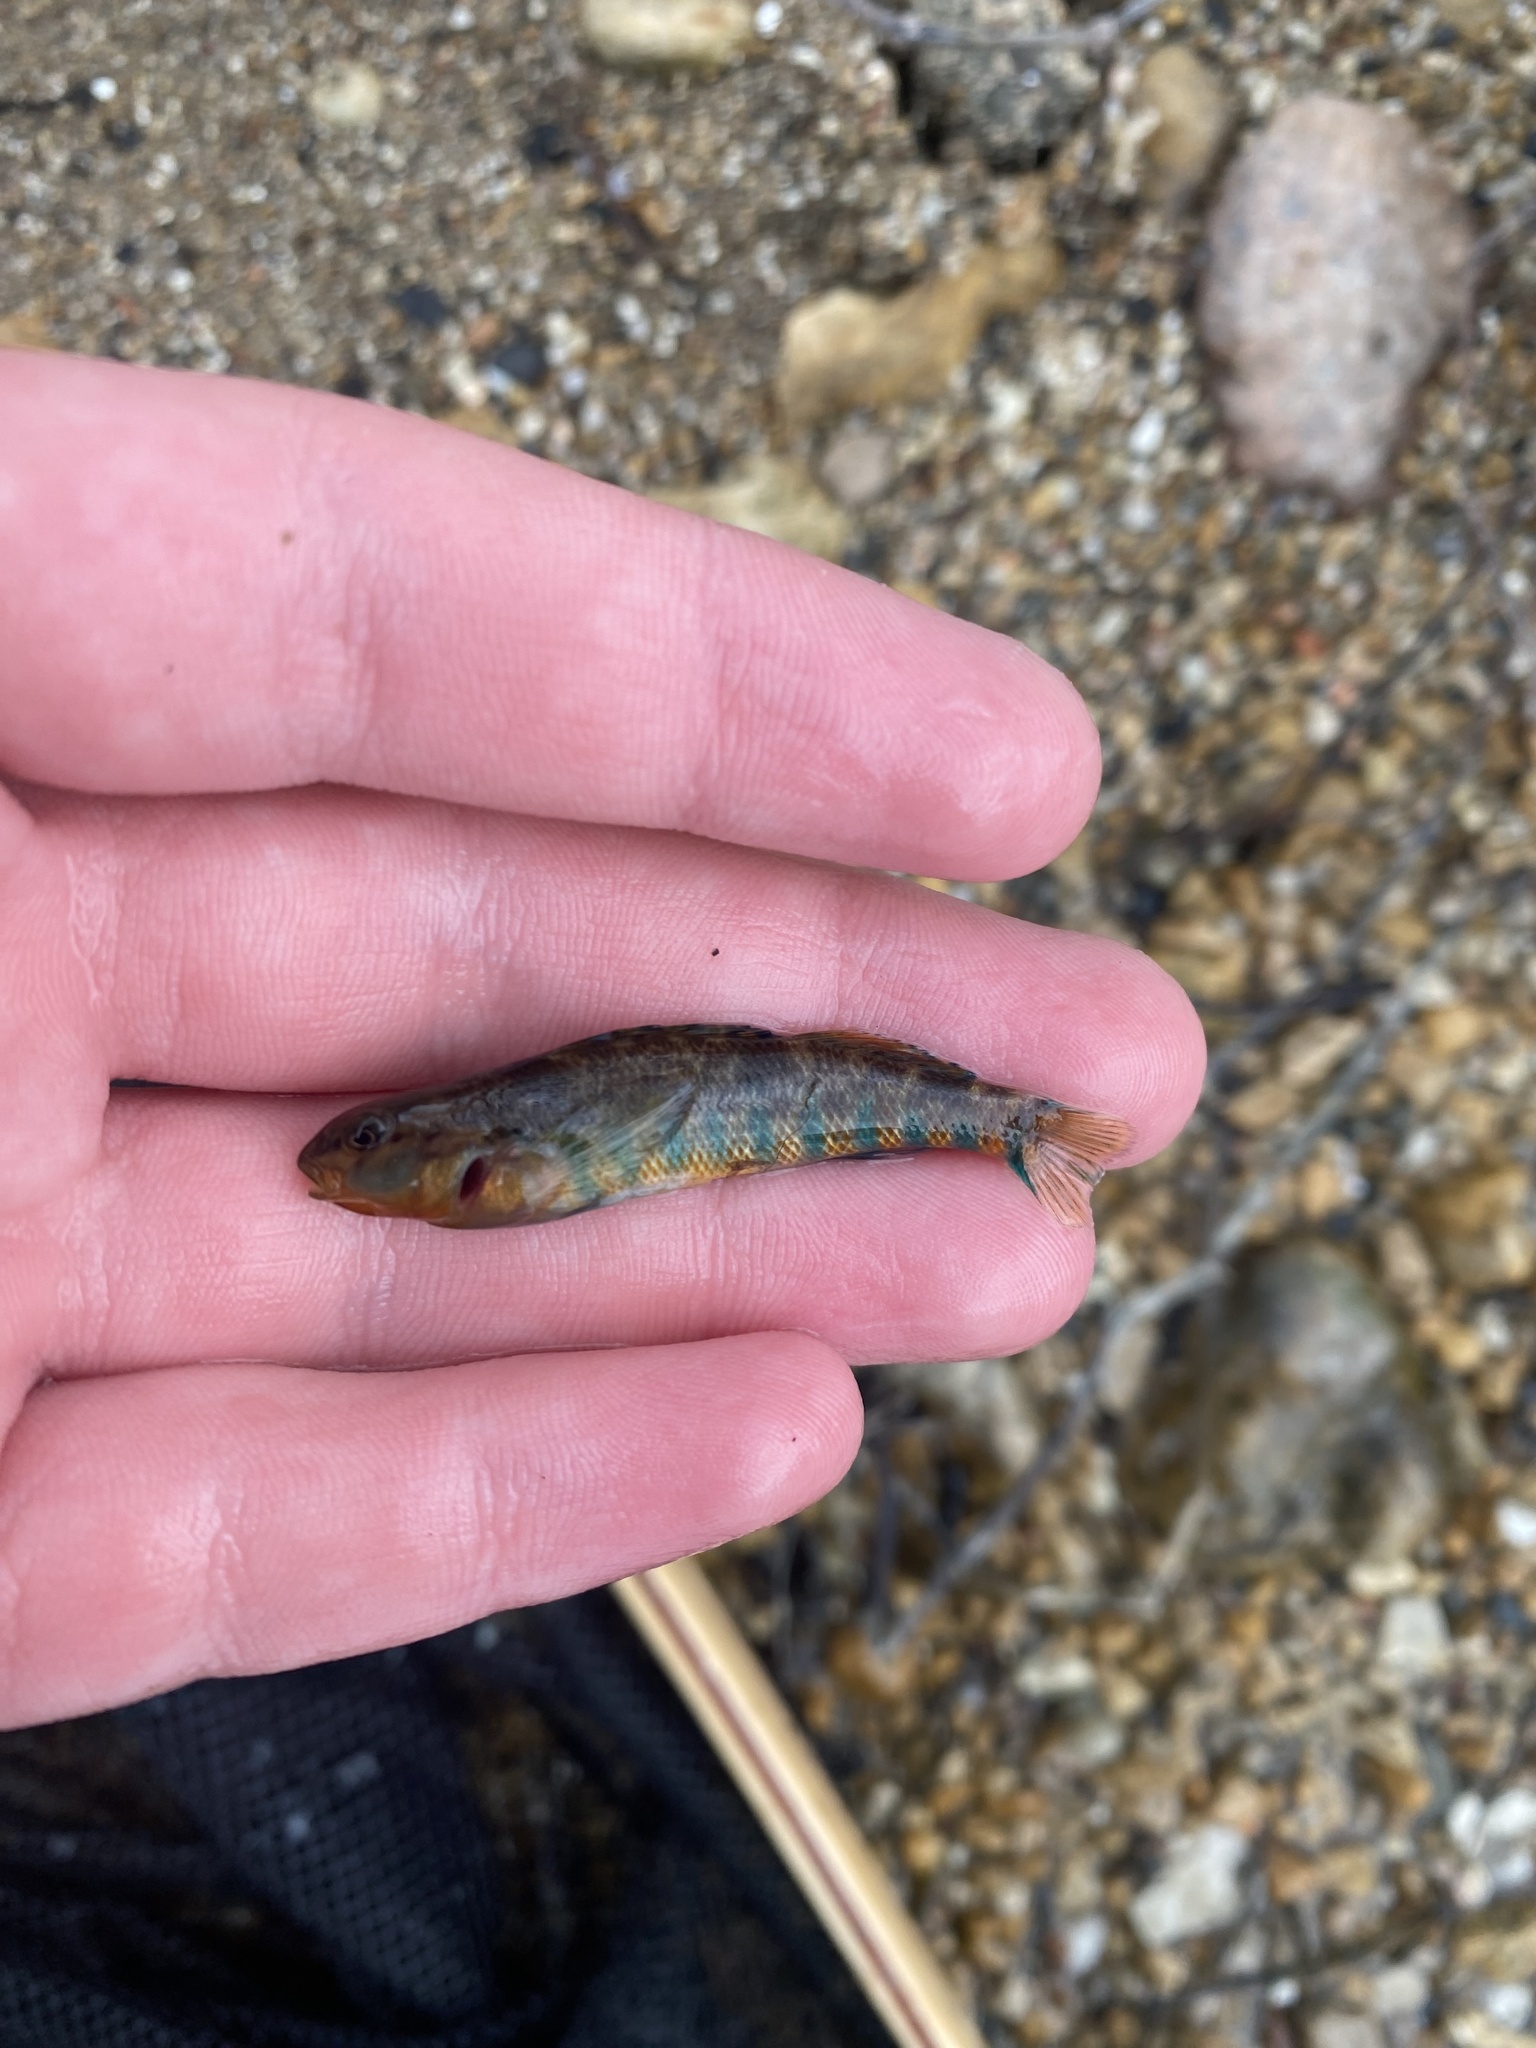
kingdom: Animalia
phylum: Chordata
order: Perciformes
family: Percidae
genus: Etheostoma
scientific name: Etheostoma caeruleum
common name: Rainbow darter
